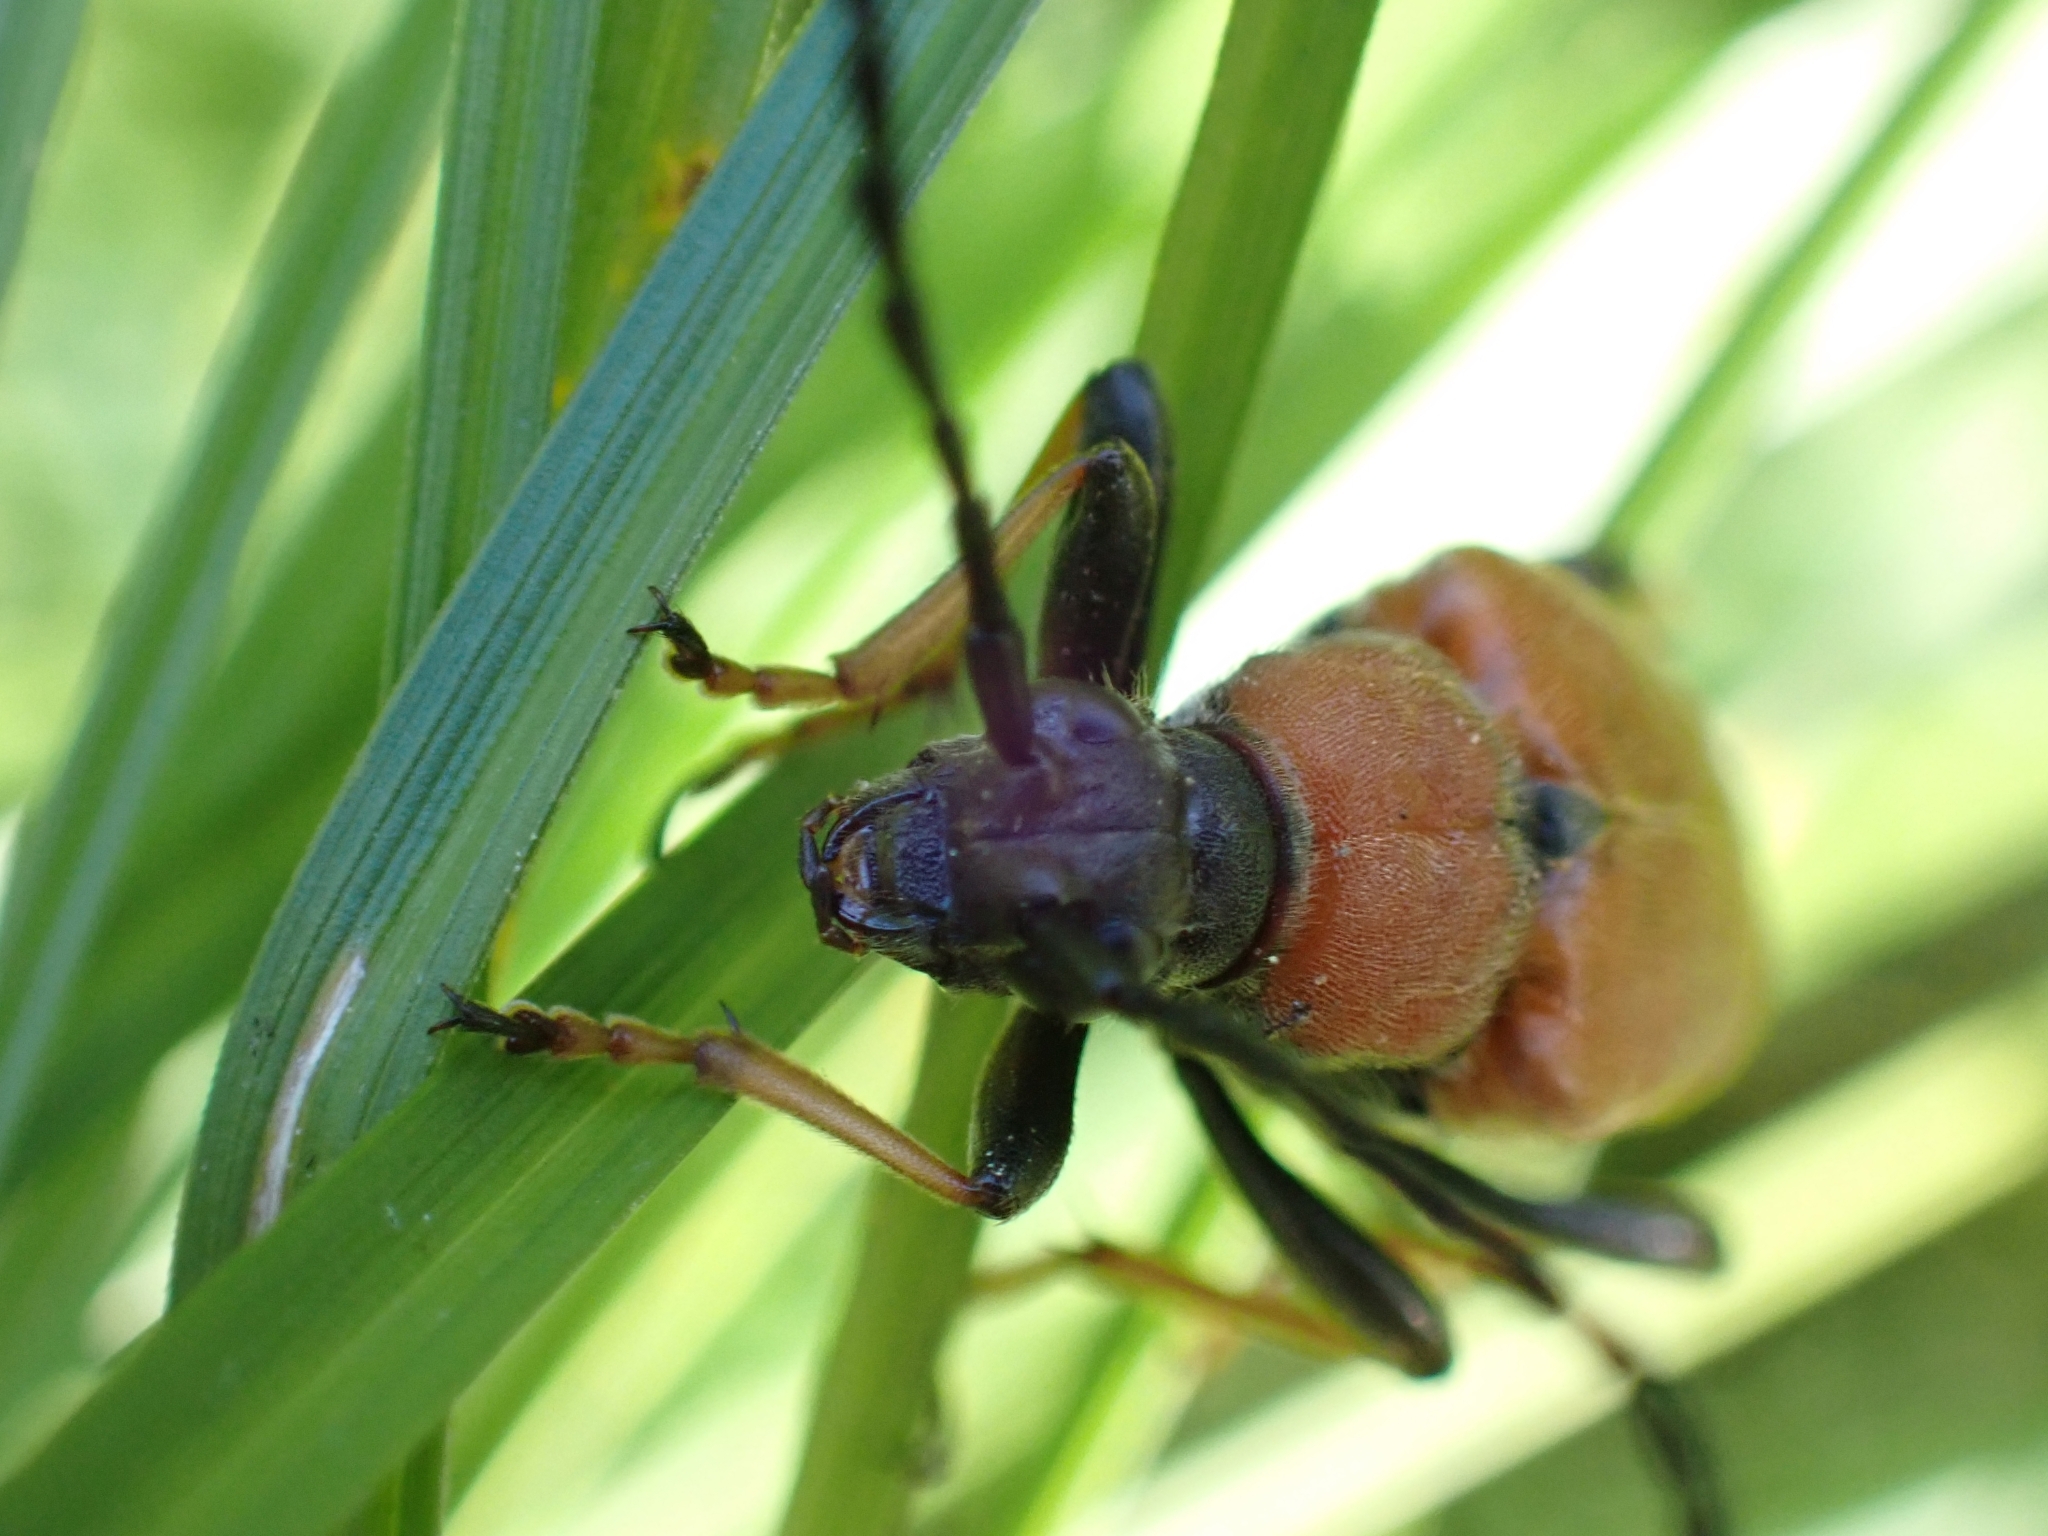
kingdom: Animalia
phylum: Arthropoda
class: Insecta
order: Coleoptera
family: Cerambycidae
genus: Stictoleptura
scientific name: Stictoleptura rubra
